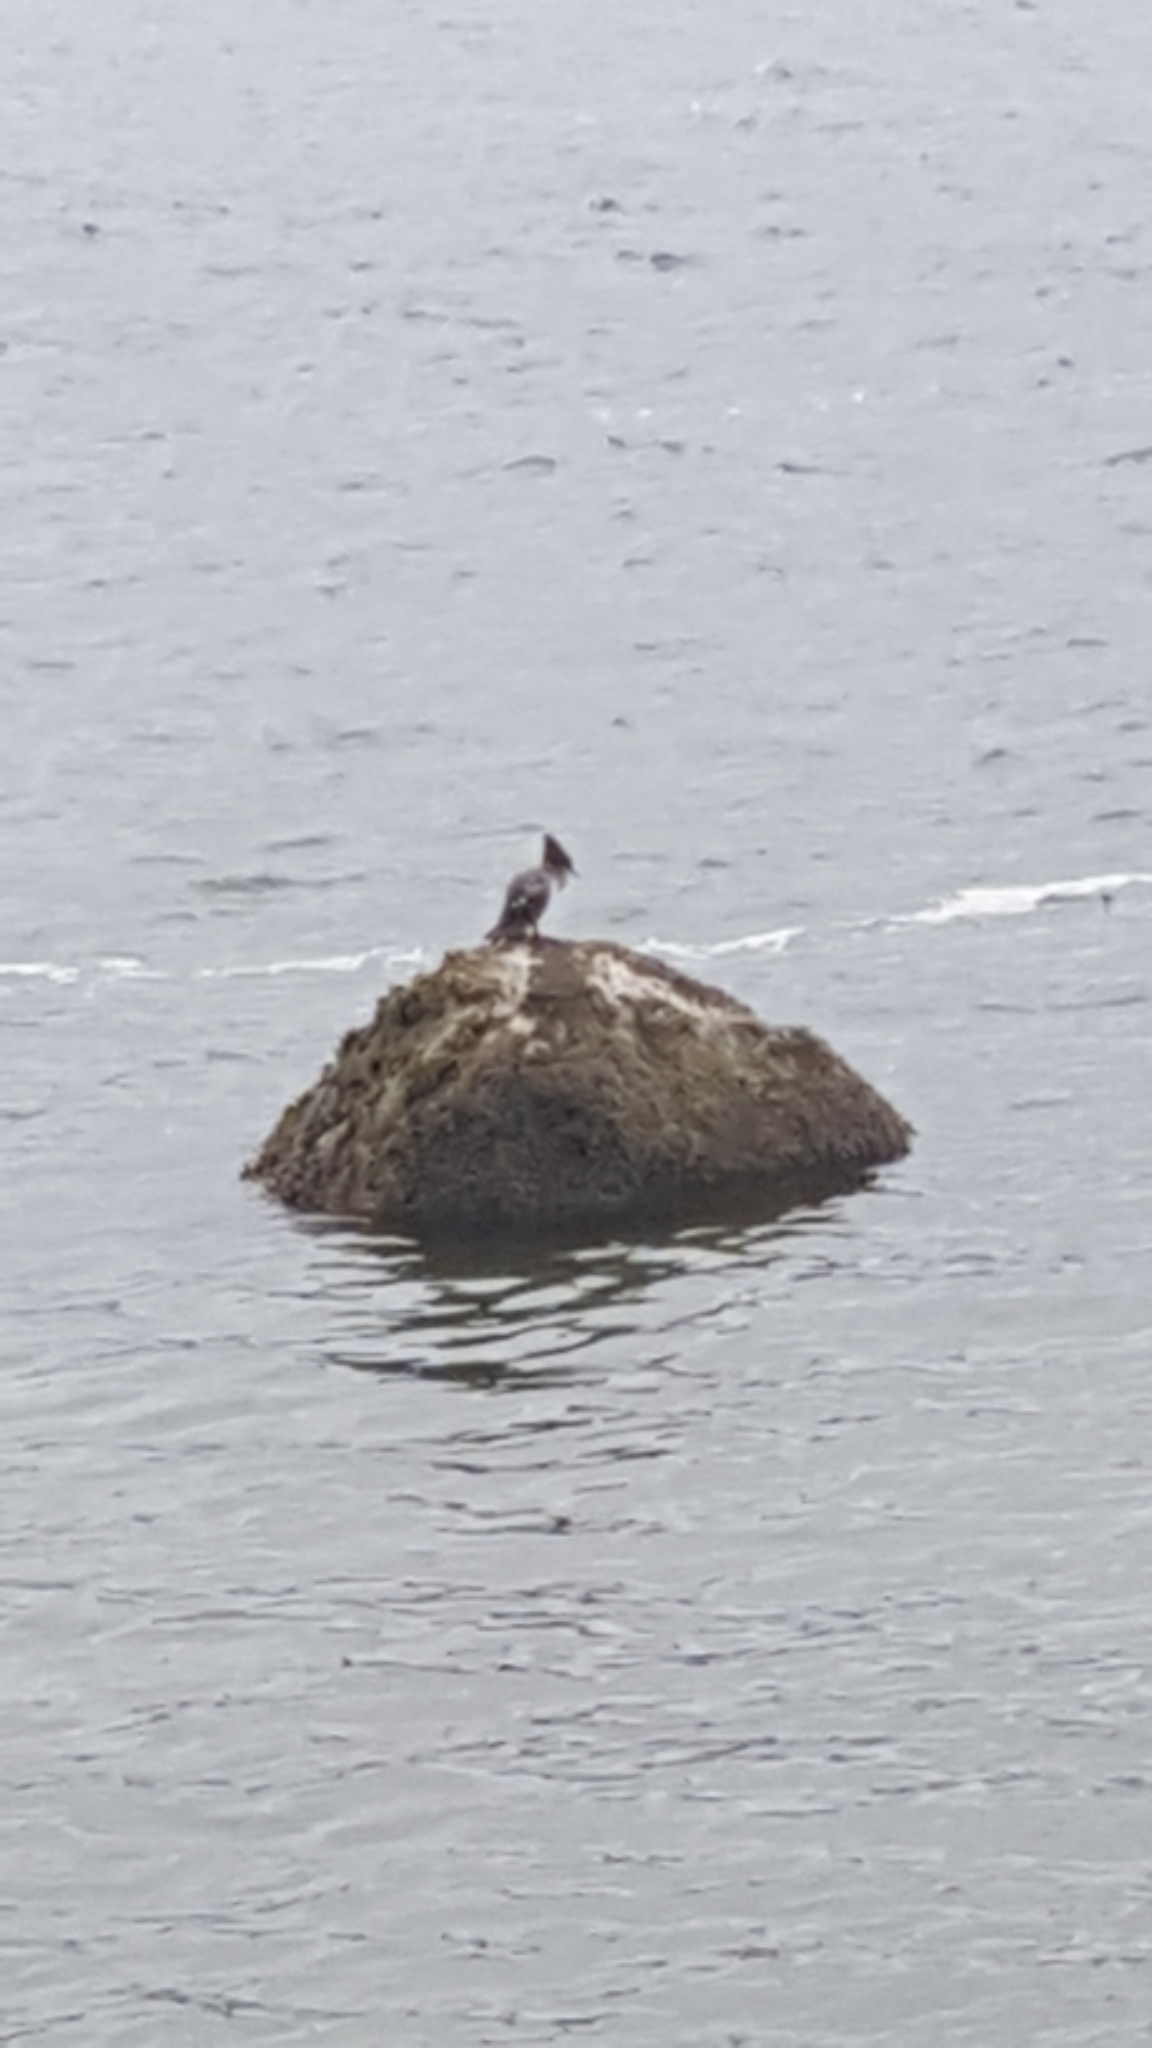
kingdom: Animalia
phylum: Chordata
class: Aves
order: Anseriformes
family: Anatidae
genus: Mergus
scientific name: Mergus merganser
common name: Common merganser
